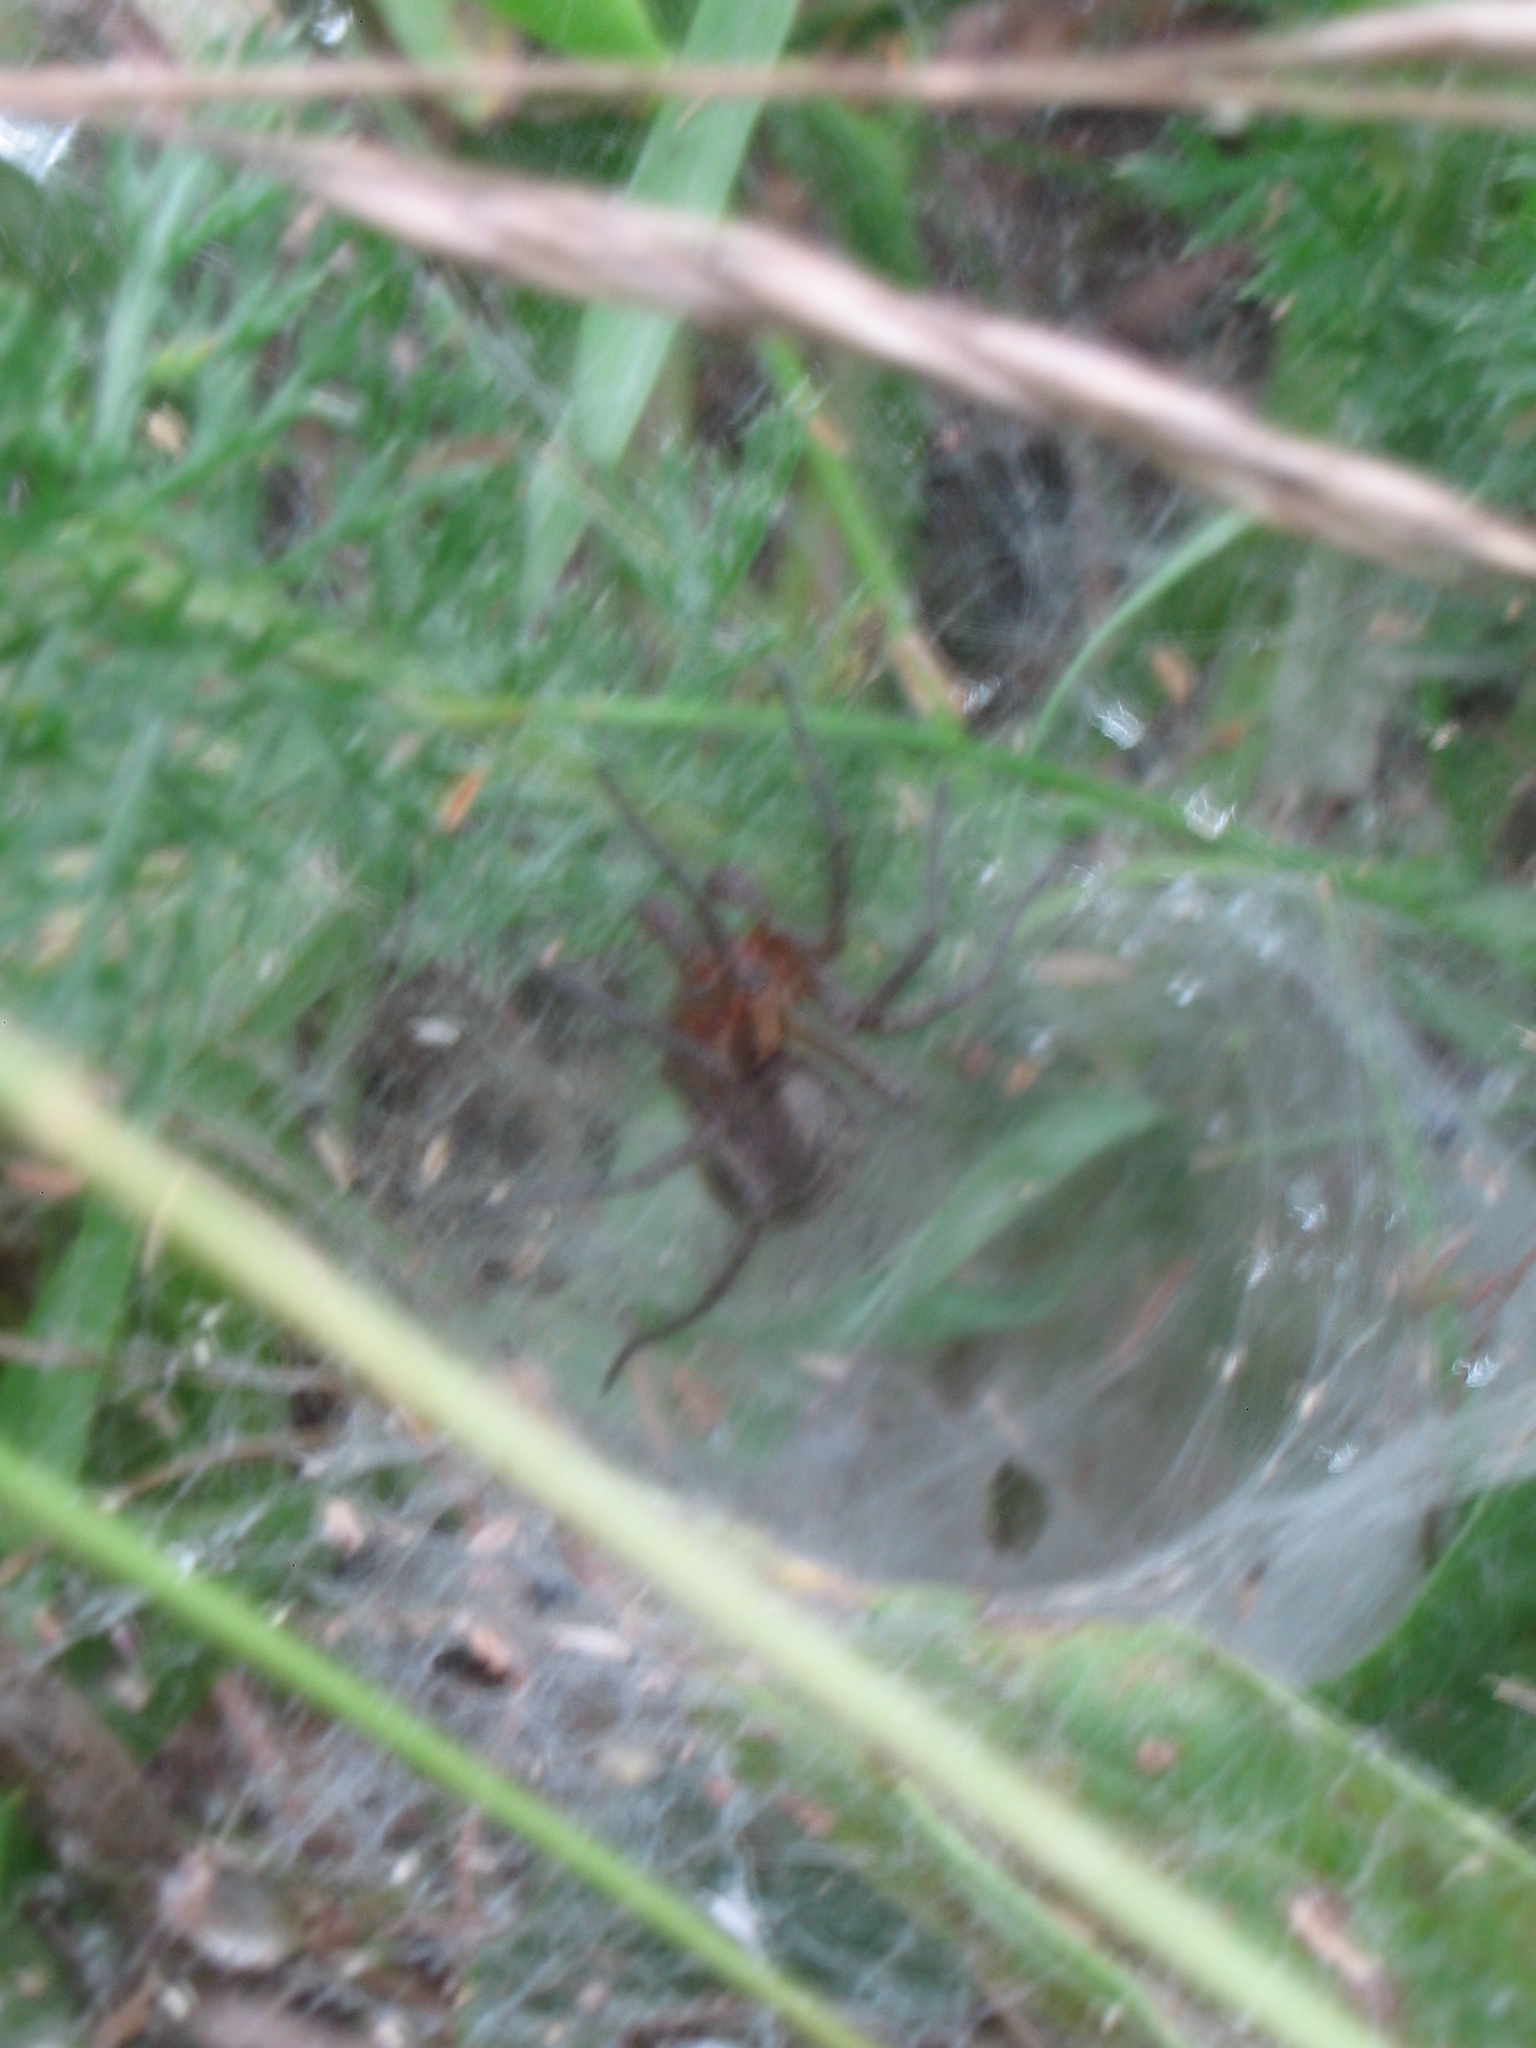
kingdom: Animalia
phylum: Arthropoda
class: Arachnida
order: Araneae
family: Agelenidae
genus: Agelena
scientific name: Agelena labyrinthica
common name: Labyrinth spider
